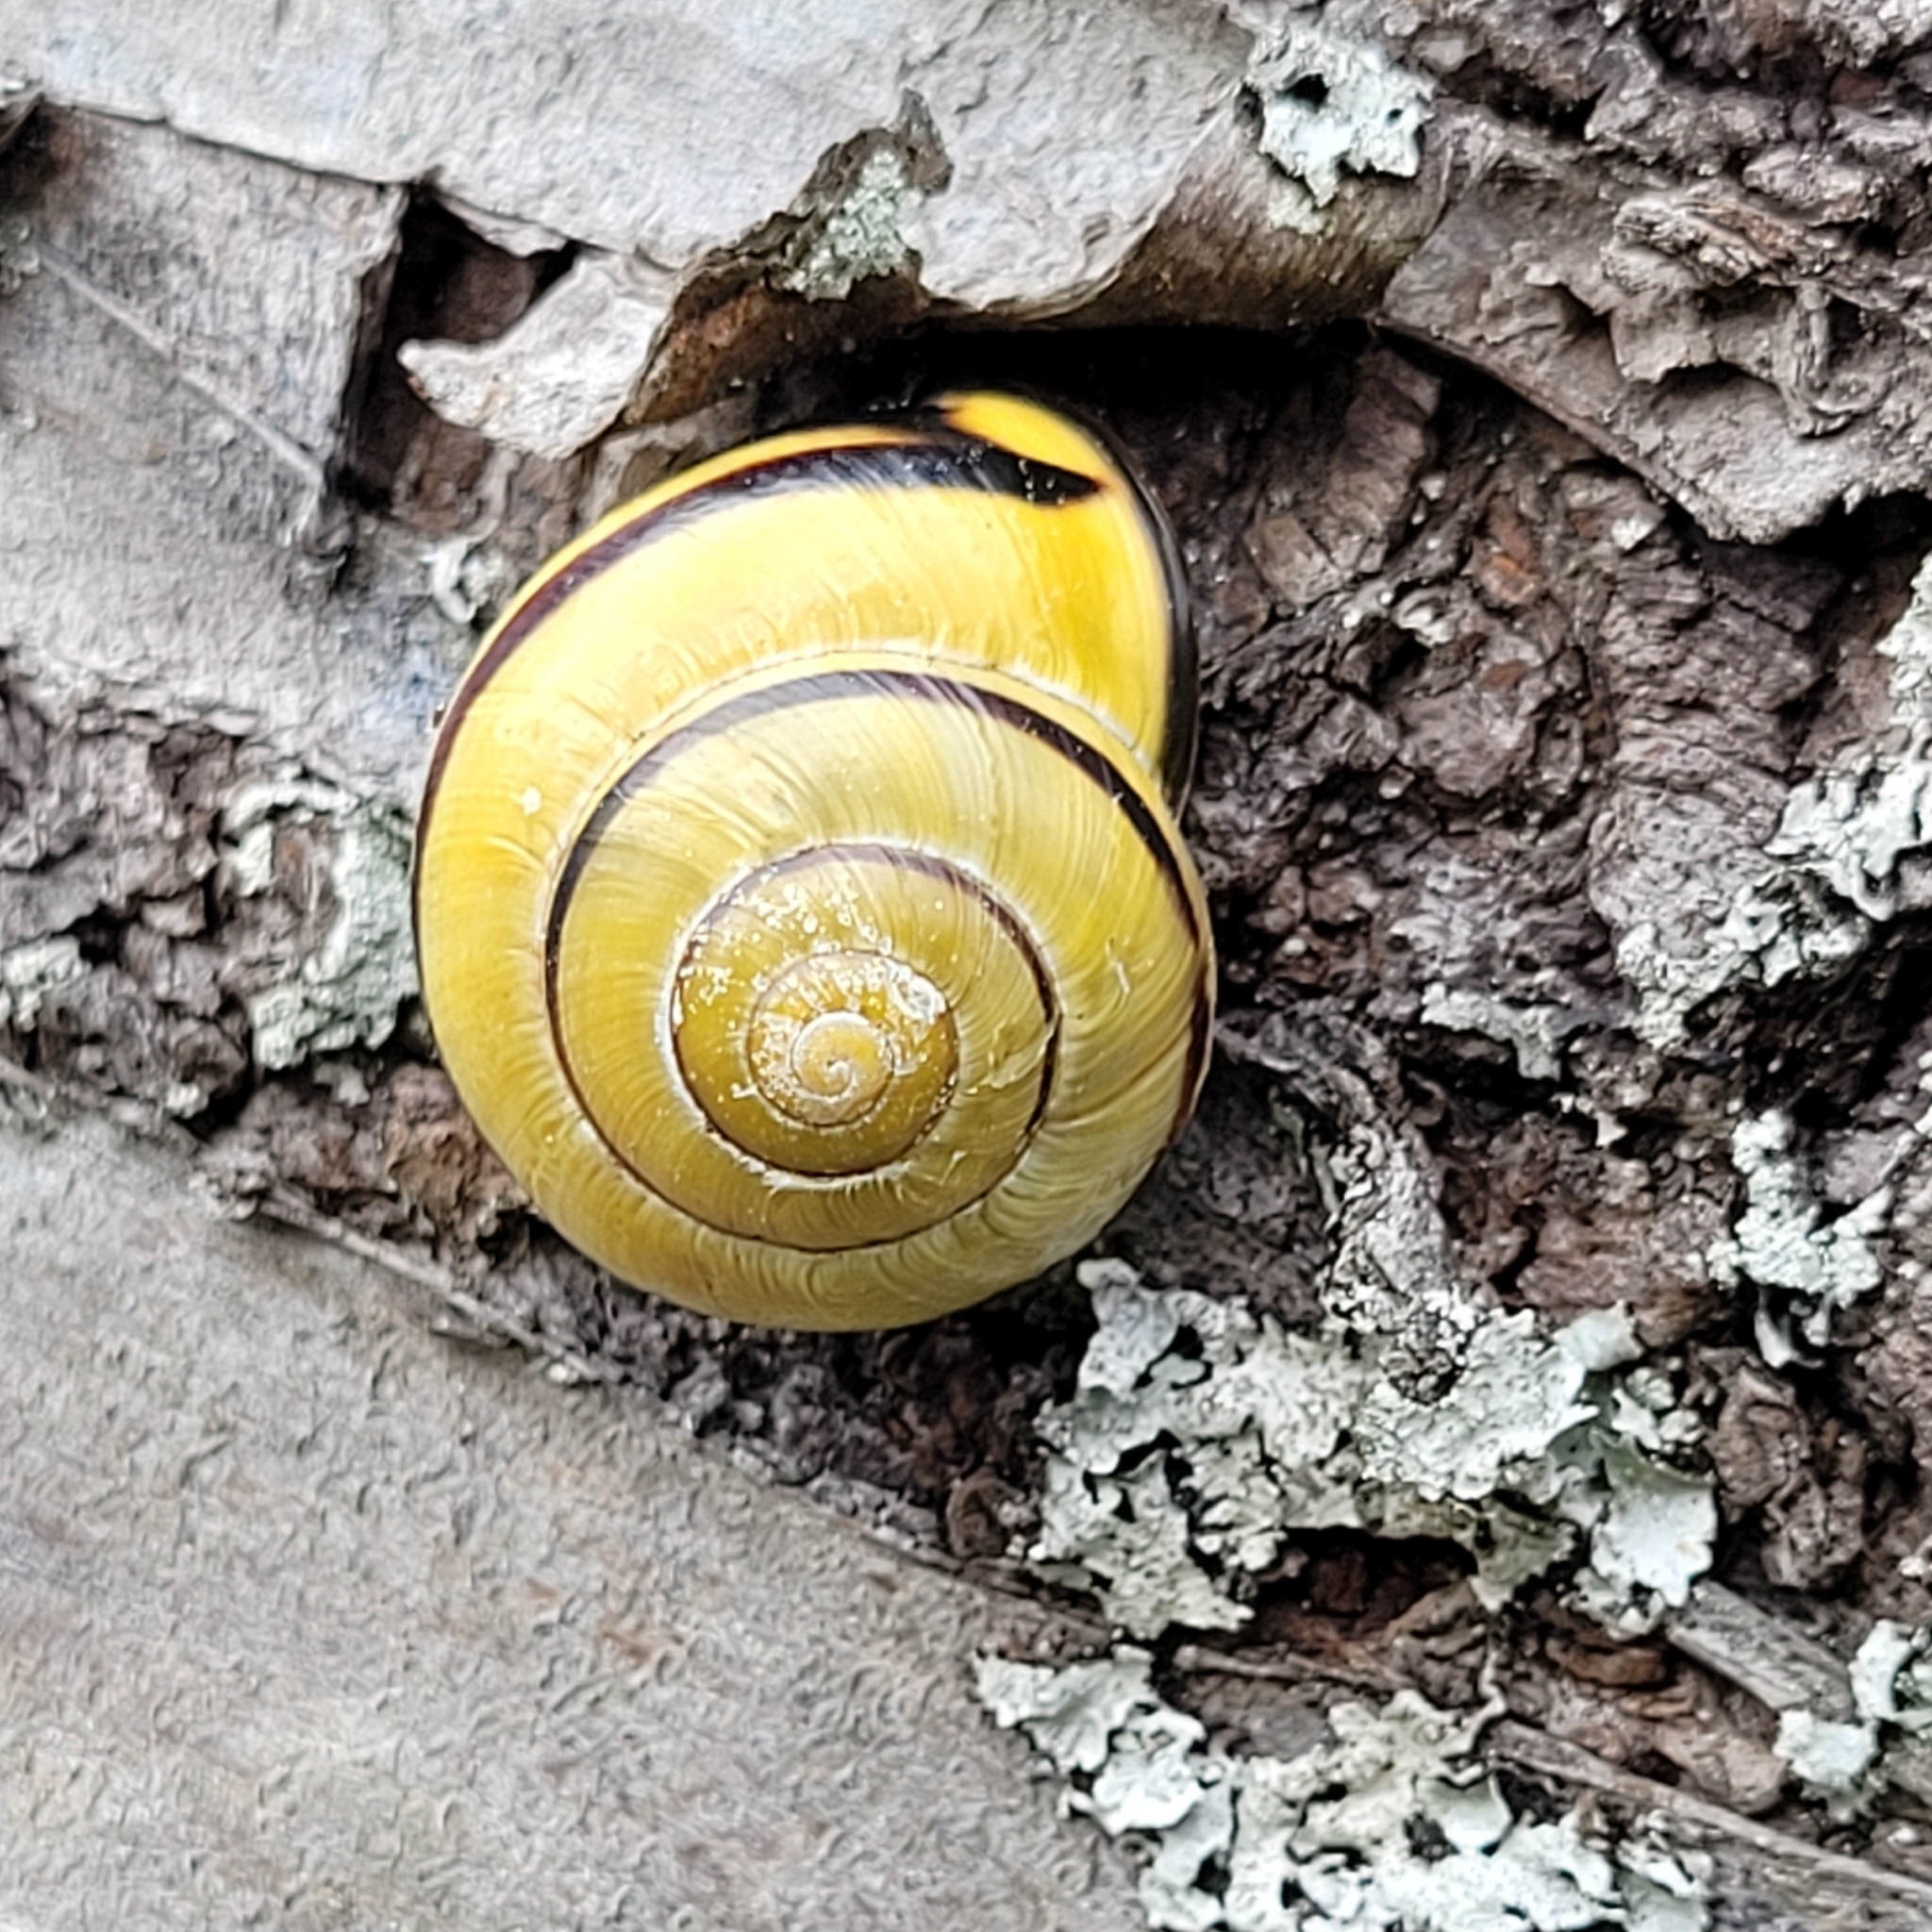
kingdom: Animalia
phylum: Mollusca
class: Gastropoda
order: Stylommatophora
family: Helicidae
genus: Cepaea
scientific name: Cepaea nemoralis
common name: Grovesnail
